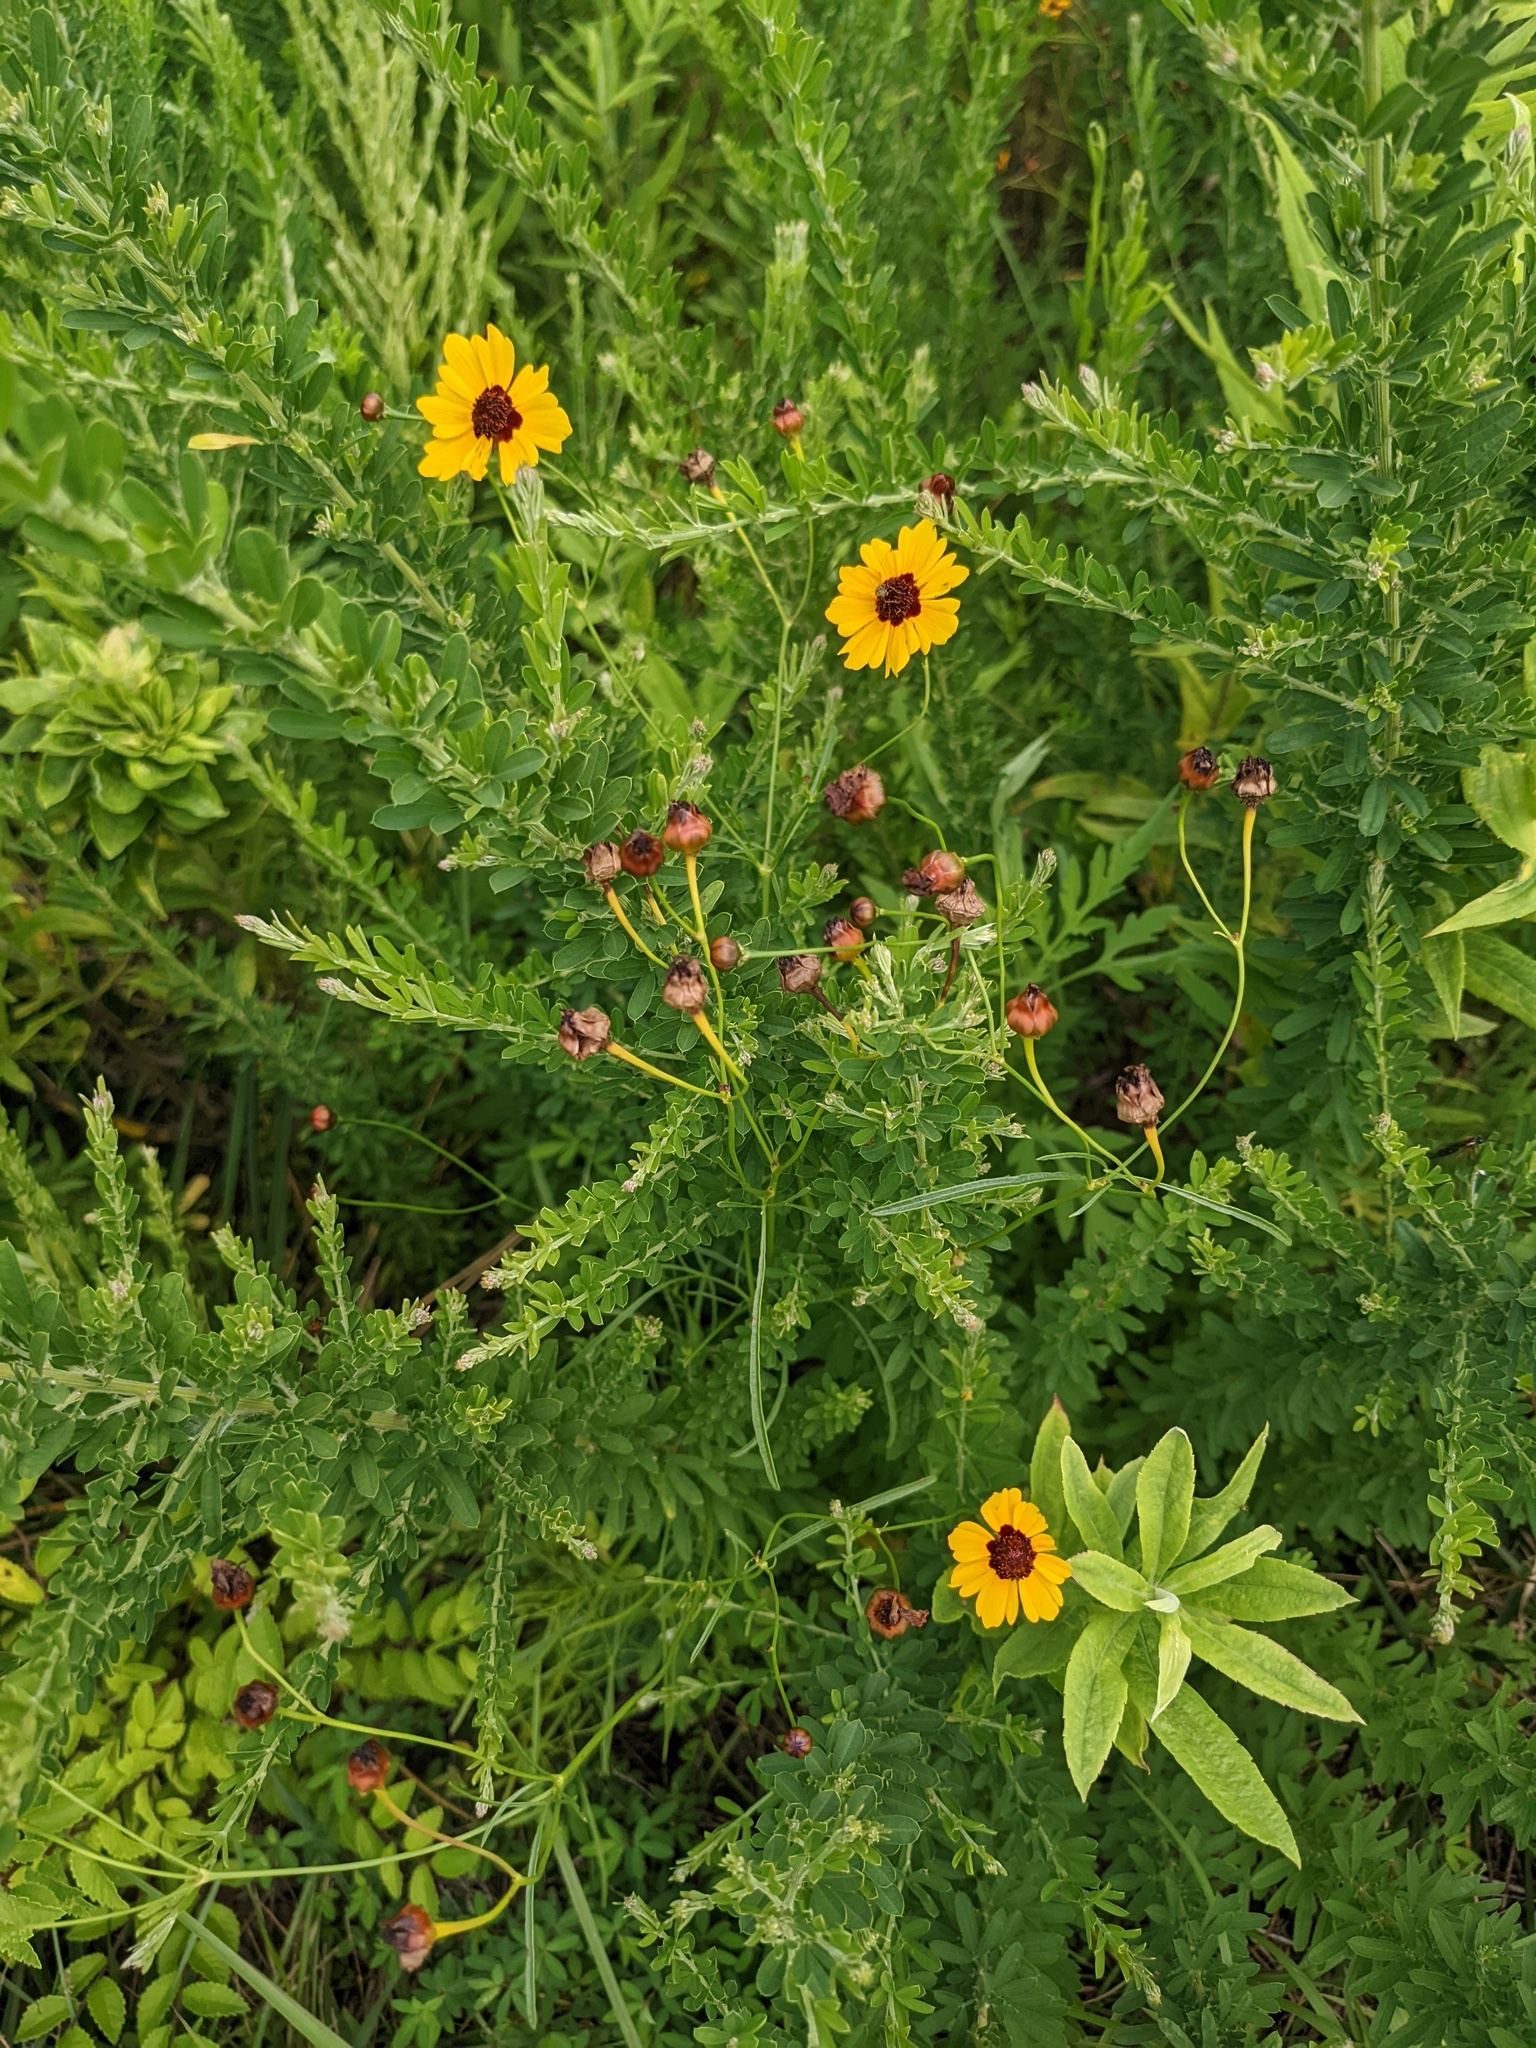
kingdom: Plantae
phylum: Tracheophyta
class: Magnoliopsida
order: Asterales
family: Asteraceae
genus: Coreopsis
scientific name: Coreopsis tinctoria
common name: Garden tickseed
